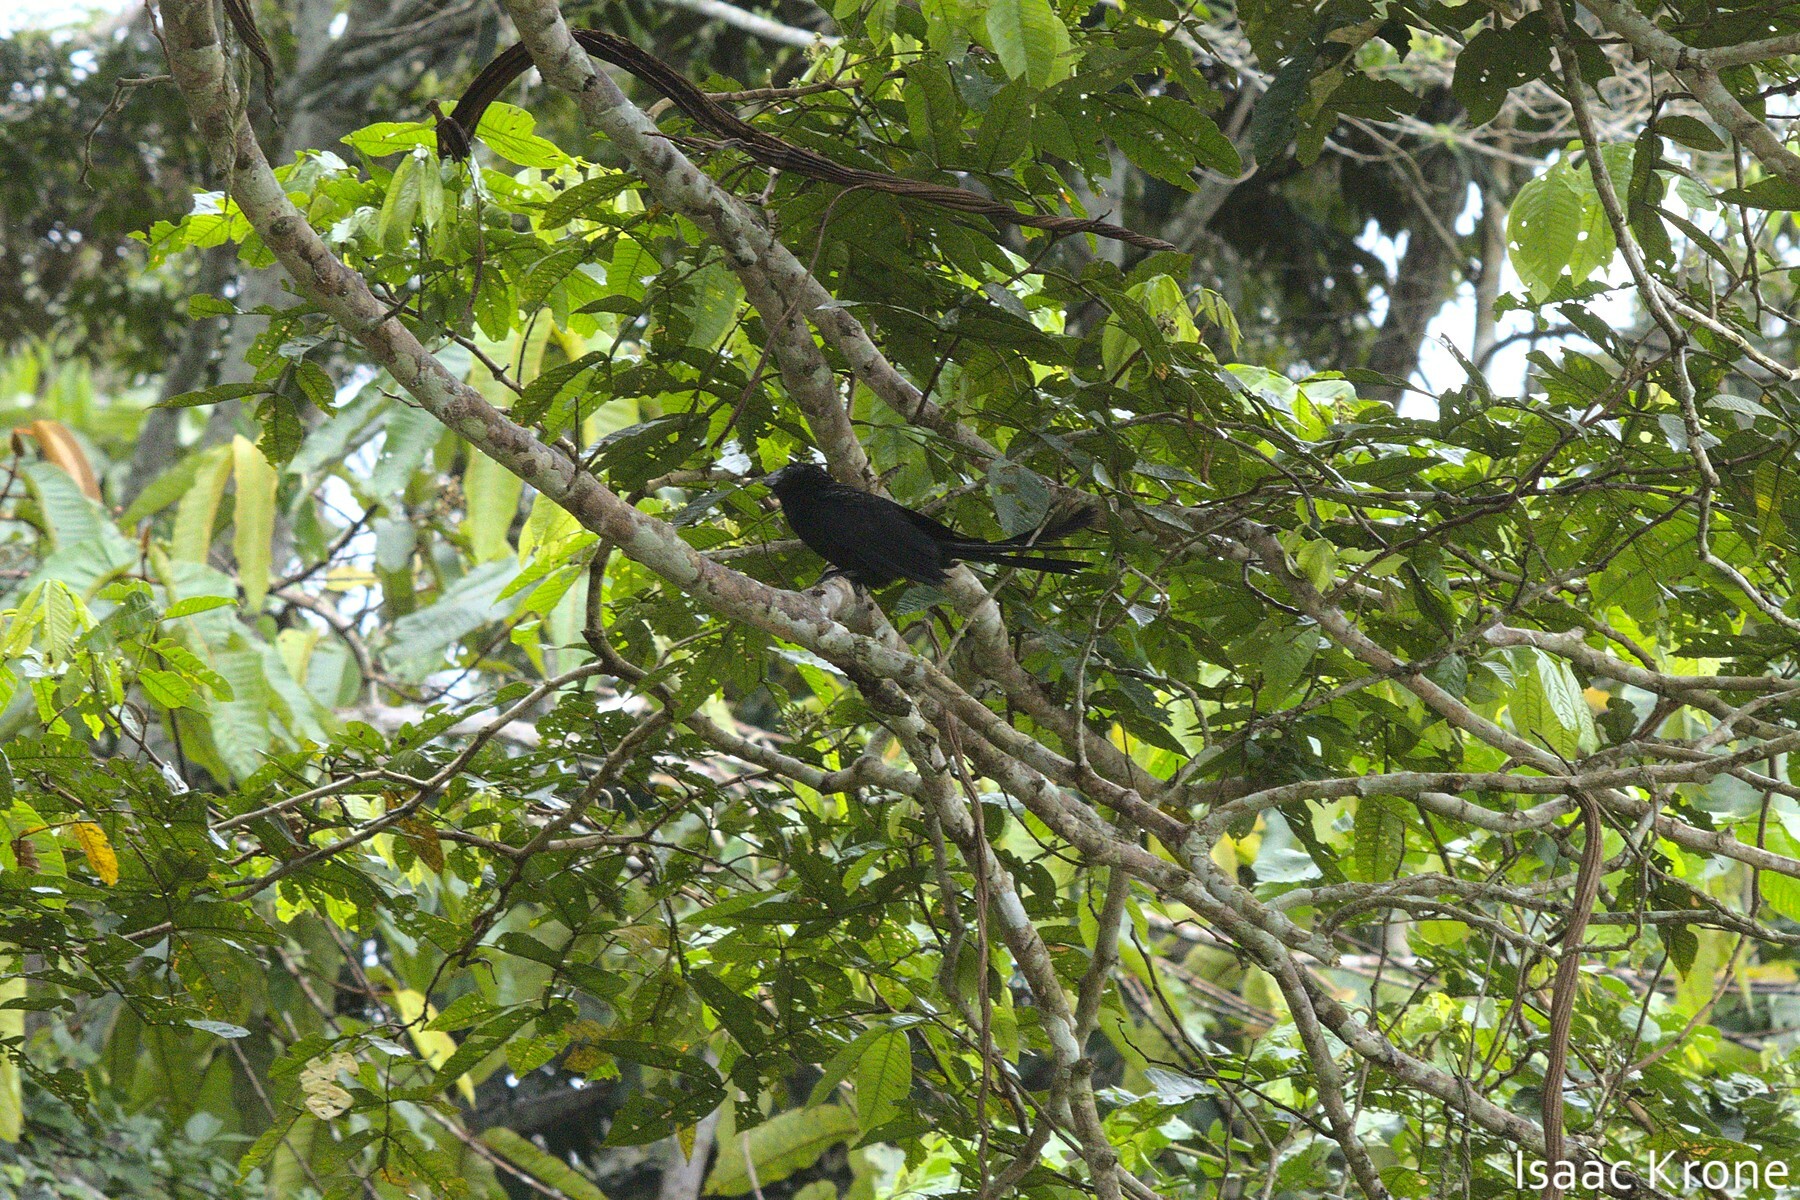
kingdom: Animalia
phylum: Chordata
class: Aves
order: Cuculiformes
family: Cuculidae
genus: Crotophaga
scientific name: Crotophaga ani
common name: Smooth-billed ani
